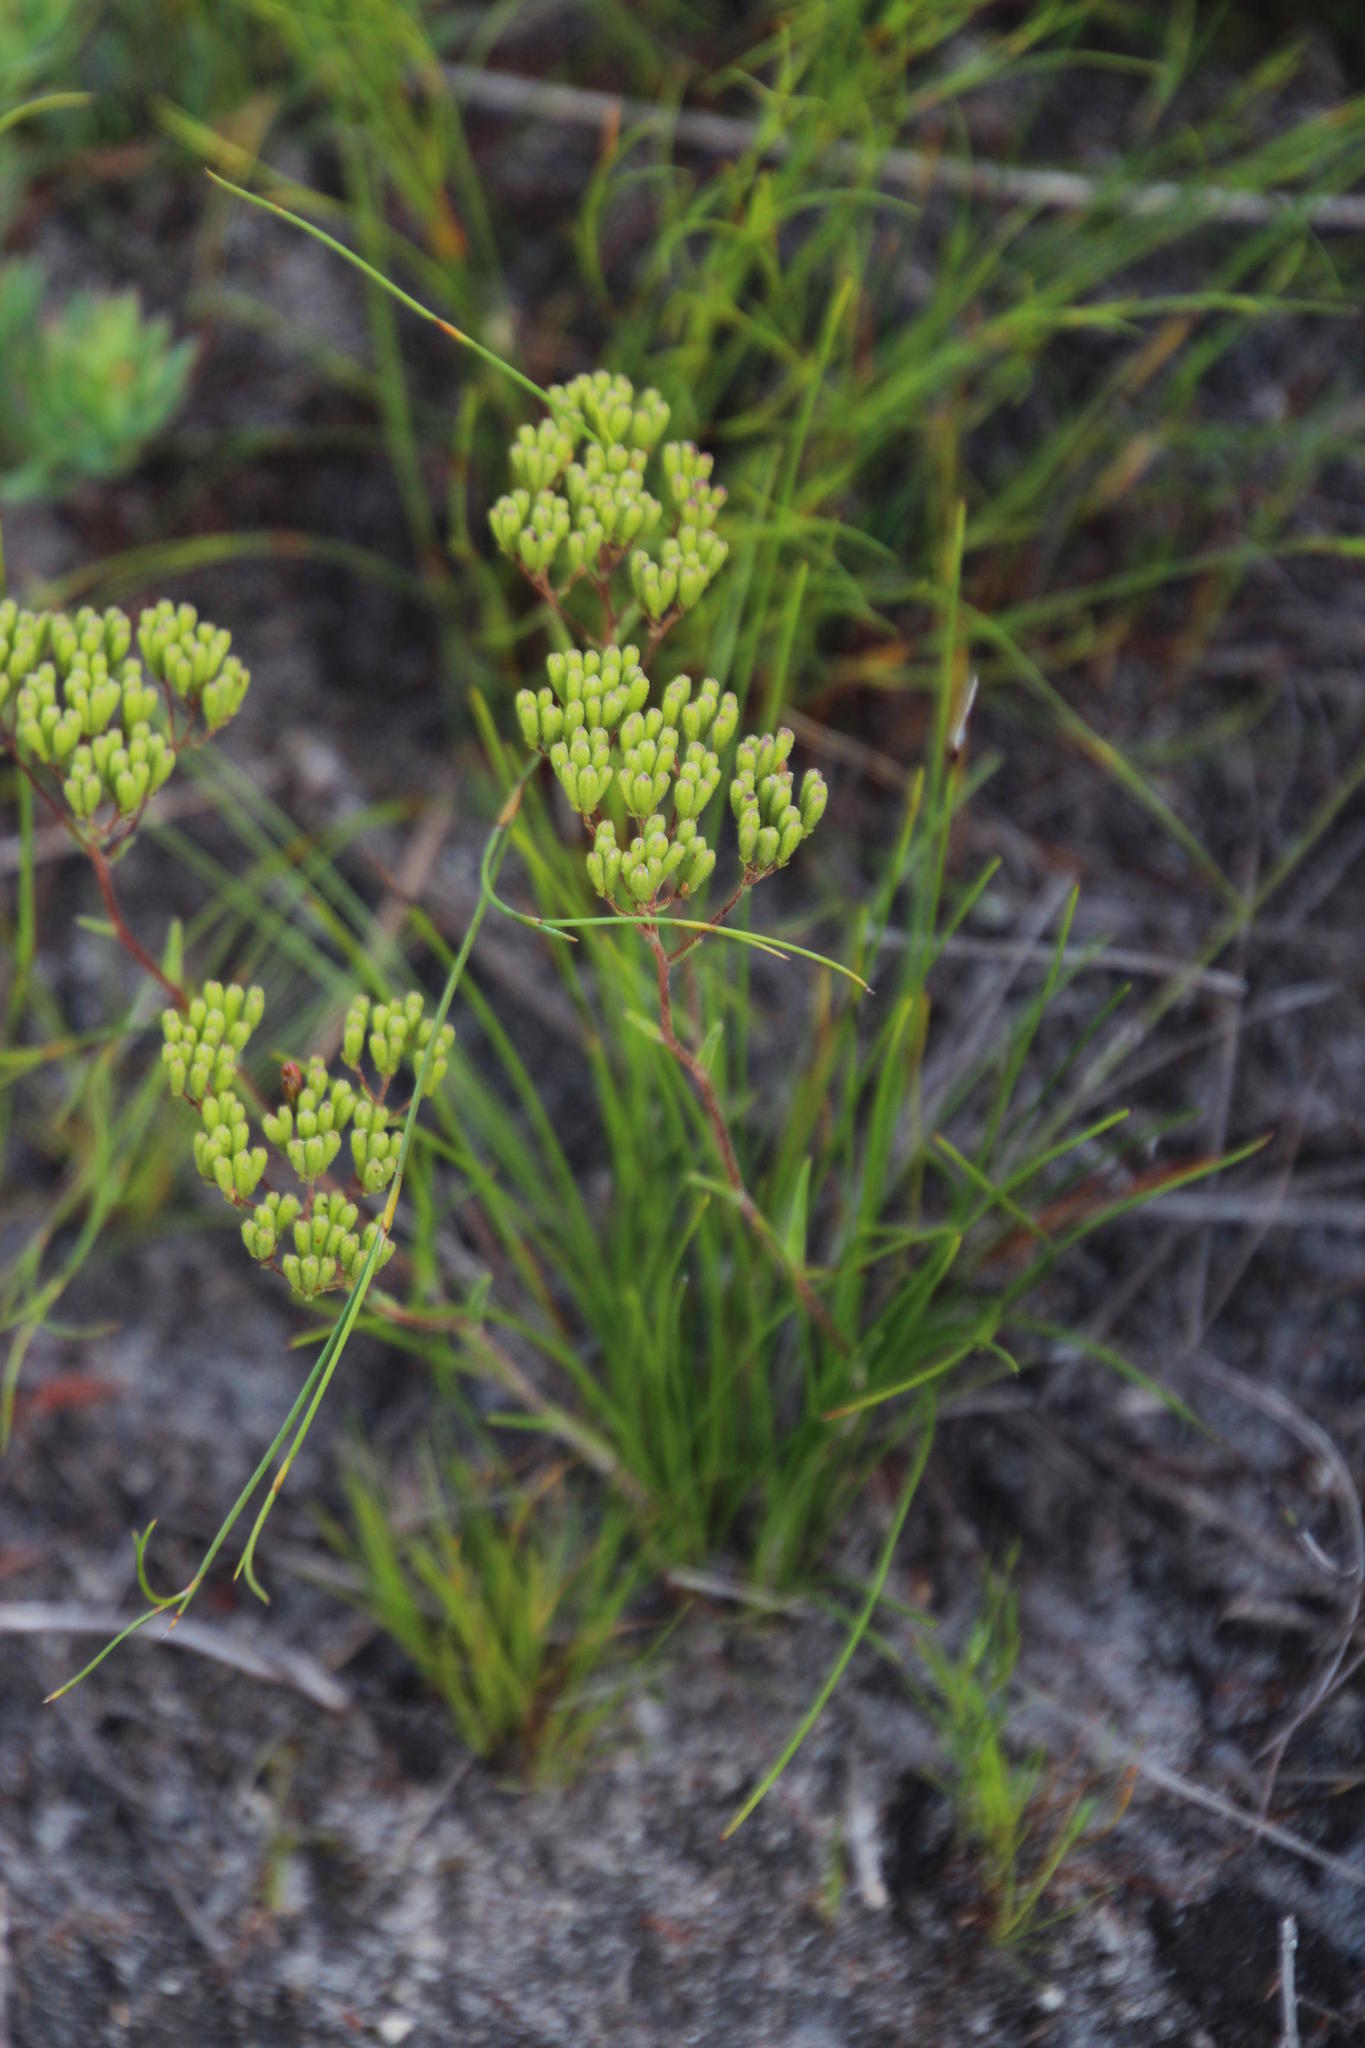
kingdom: Plantae
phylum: Tracheophyta
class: Magnoliopsida
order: Asterales
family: Asteraceae
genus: Corymbium
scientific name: Corymbium africanum
